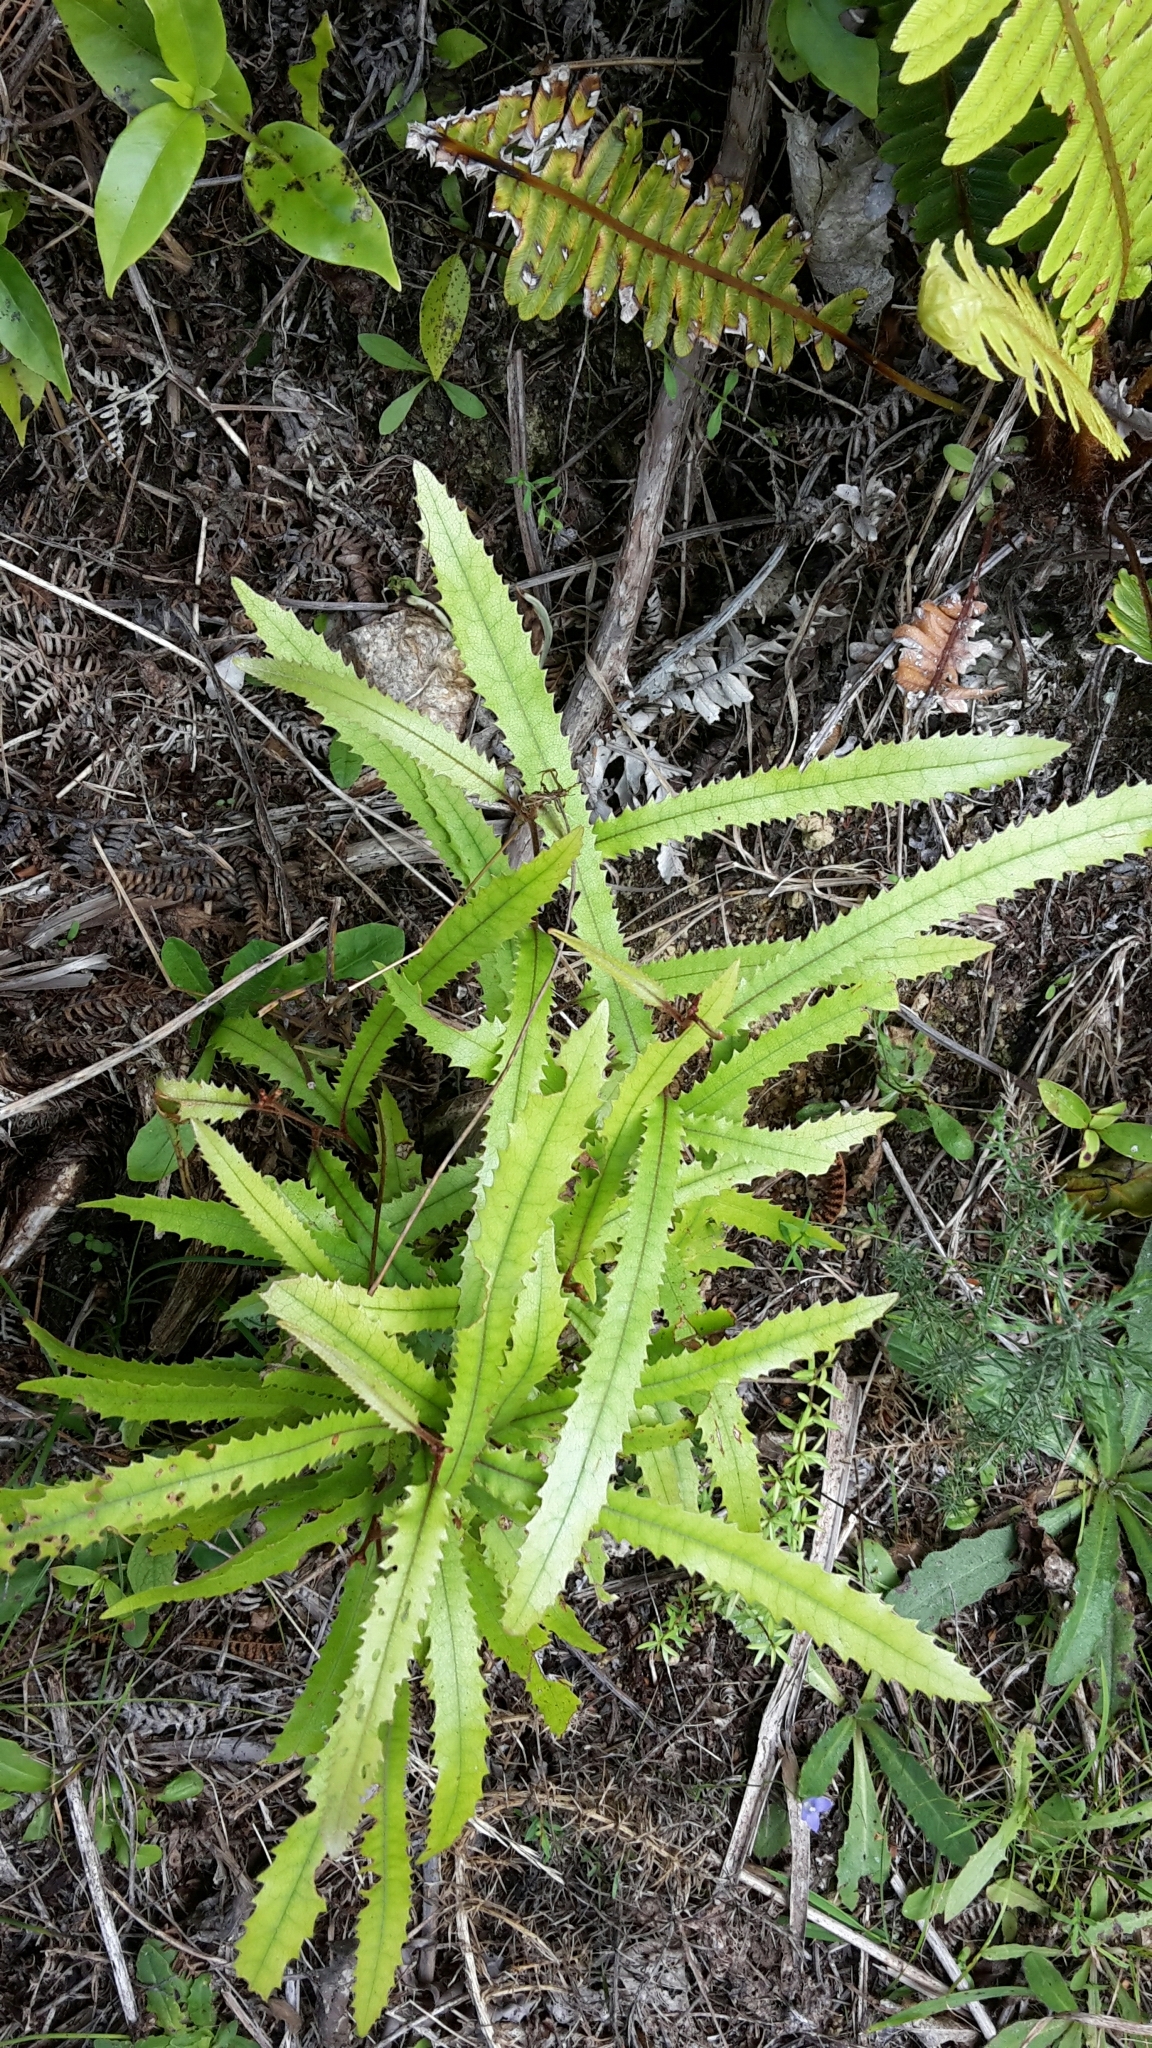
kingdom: Plantae
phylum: Tracheophyta
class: Magnoliopsida
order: Proteales
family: Proteaceae
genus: Knightia
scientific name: Knightia excelsa
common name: New zealand-honeysuckle
